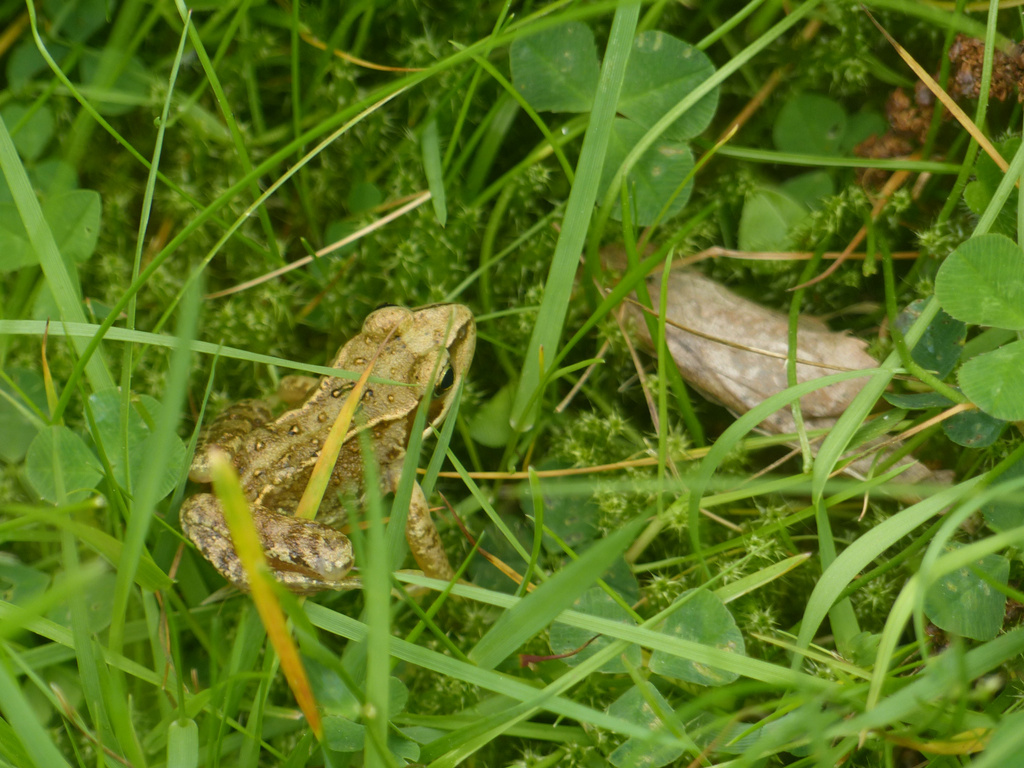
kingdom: Animalia
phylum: Chordata
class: Amphibia
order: Anura
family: Ranidae
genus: Rana
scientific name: Rana temporaria
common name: Common frog
